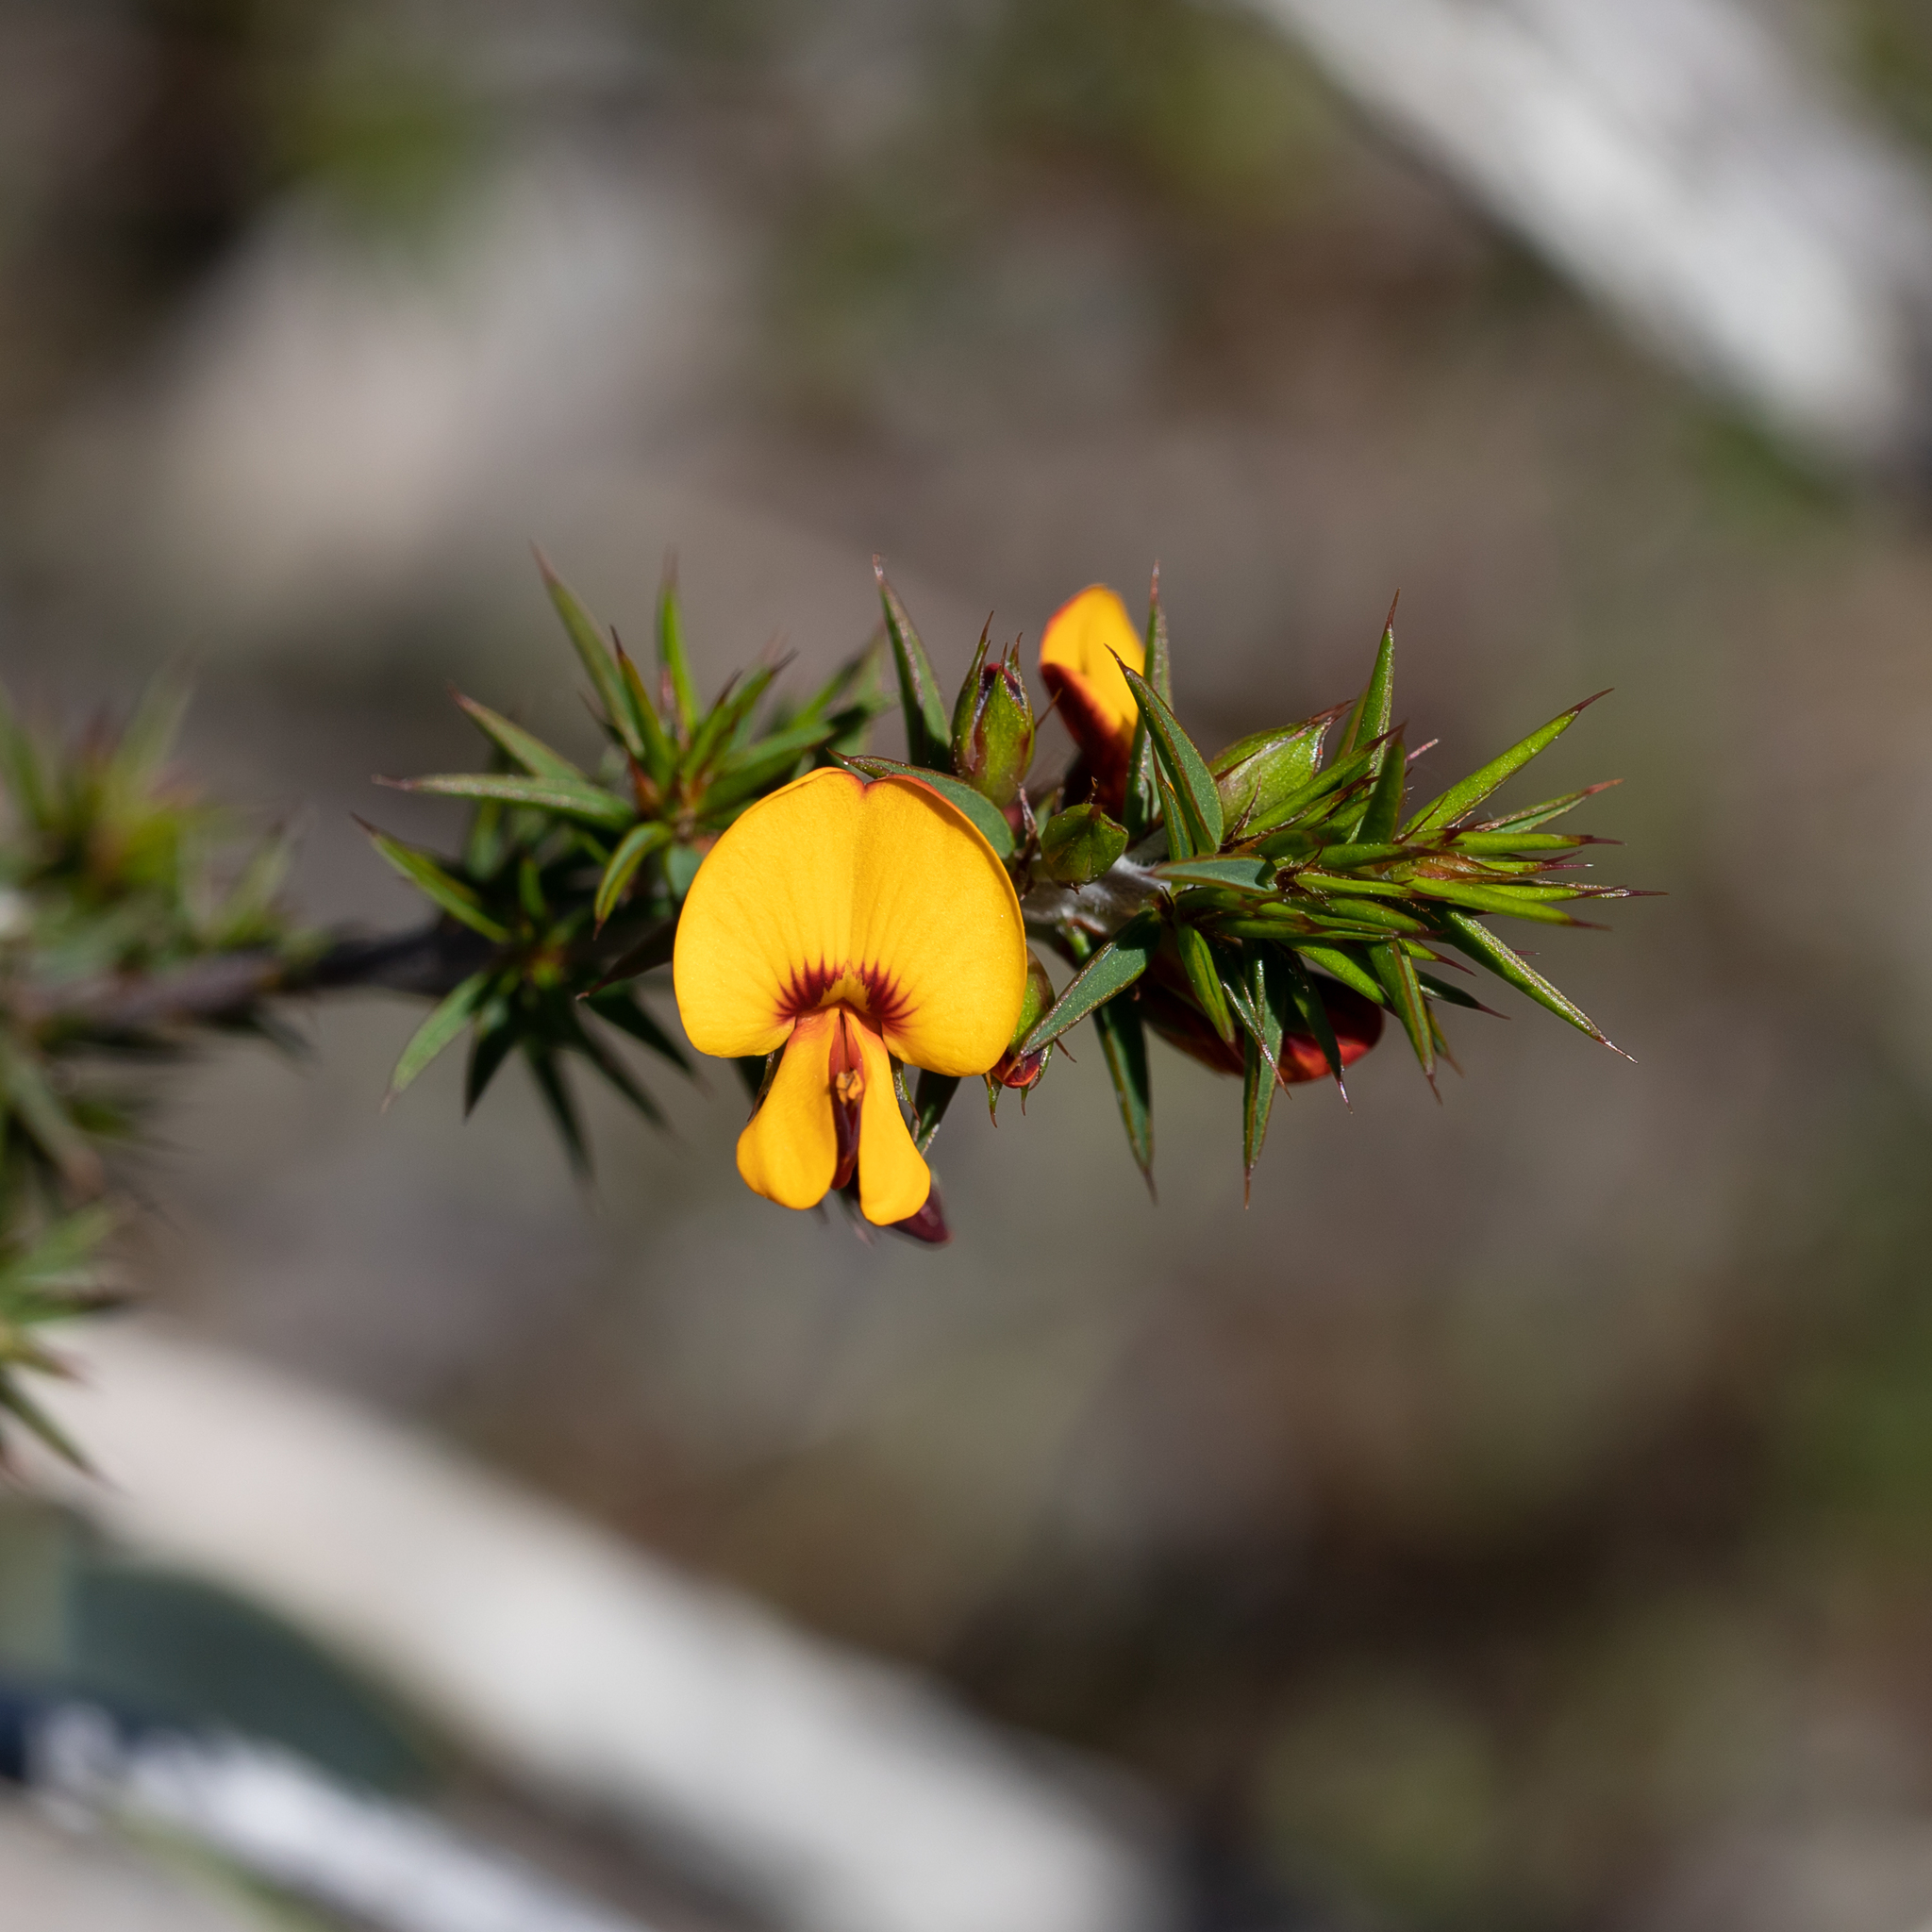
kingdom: Plantae
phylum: Tracheophyta
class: Magnoliopsida
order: Fabales
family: Fabaceae
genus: Pultenaea
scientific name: Pultenaea acerosa
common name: Bristly bush-pea
